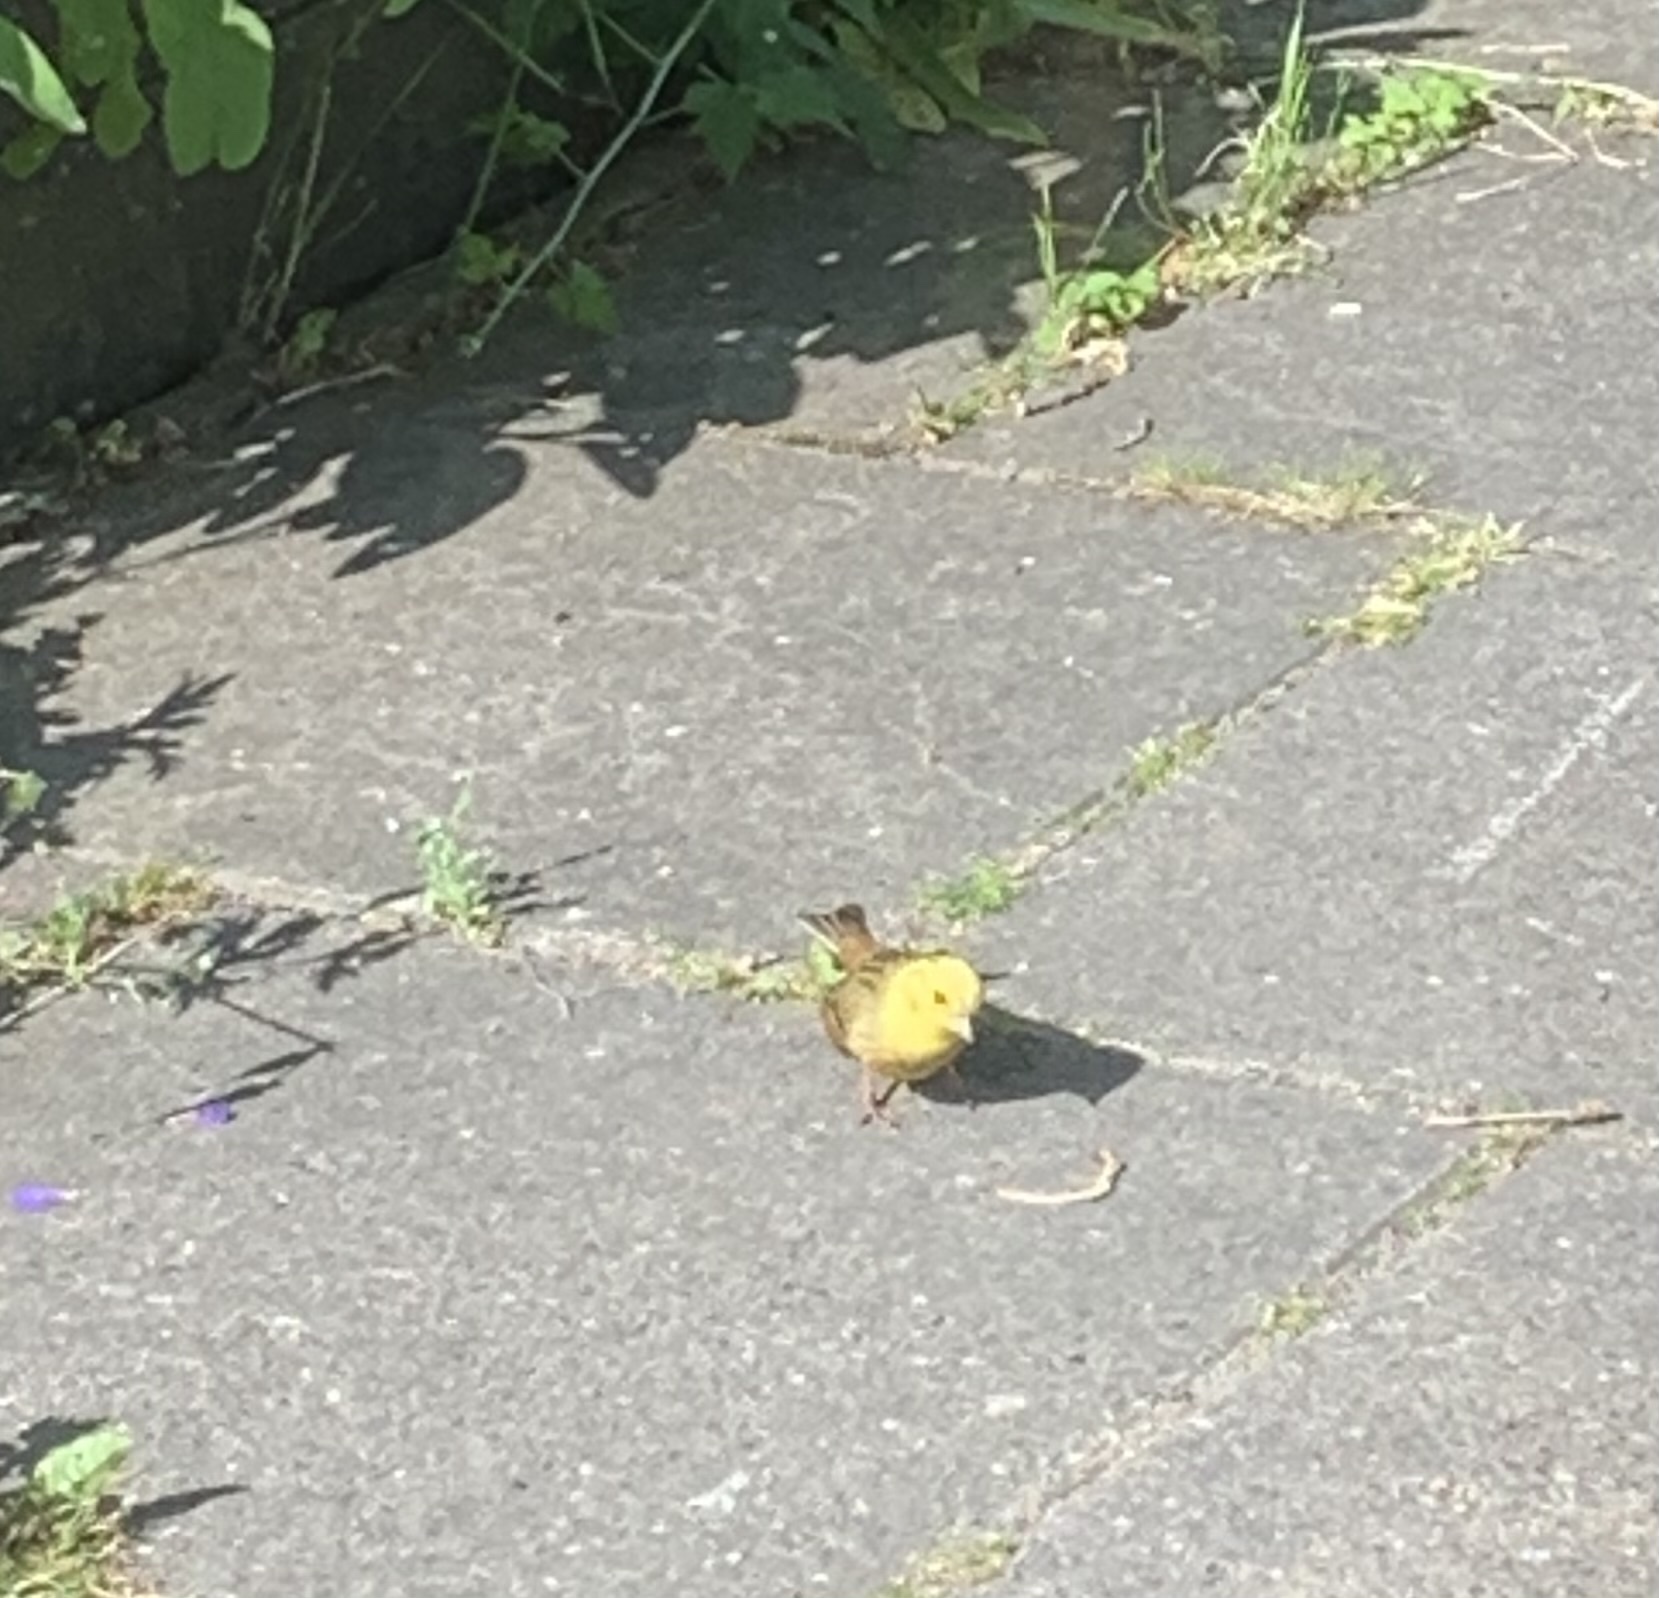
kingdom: Animalia
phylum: Chordata
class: Aves
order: Passeriformes
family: Emberizidae
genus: Emberiza
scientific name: Emberiza citrinella
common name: Yellowhammer
